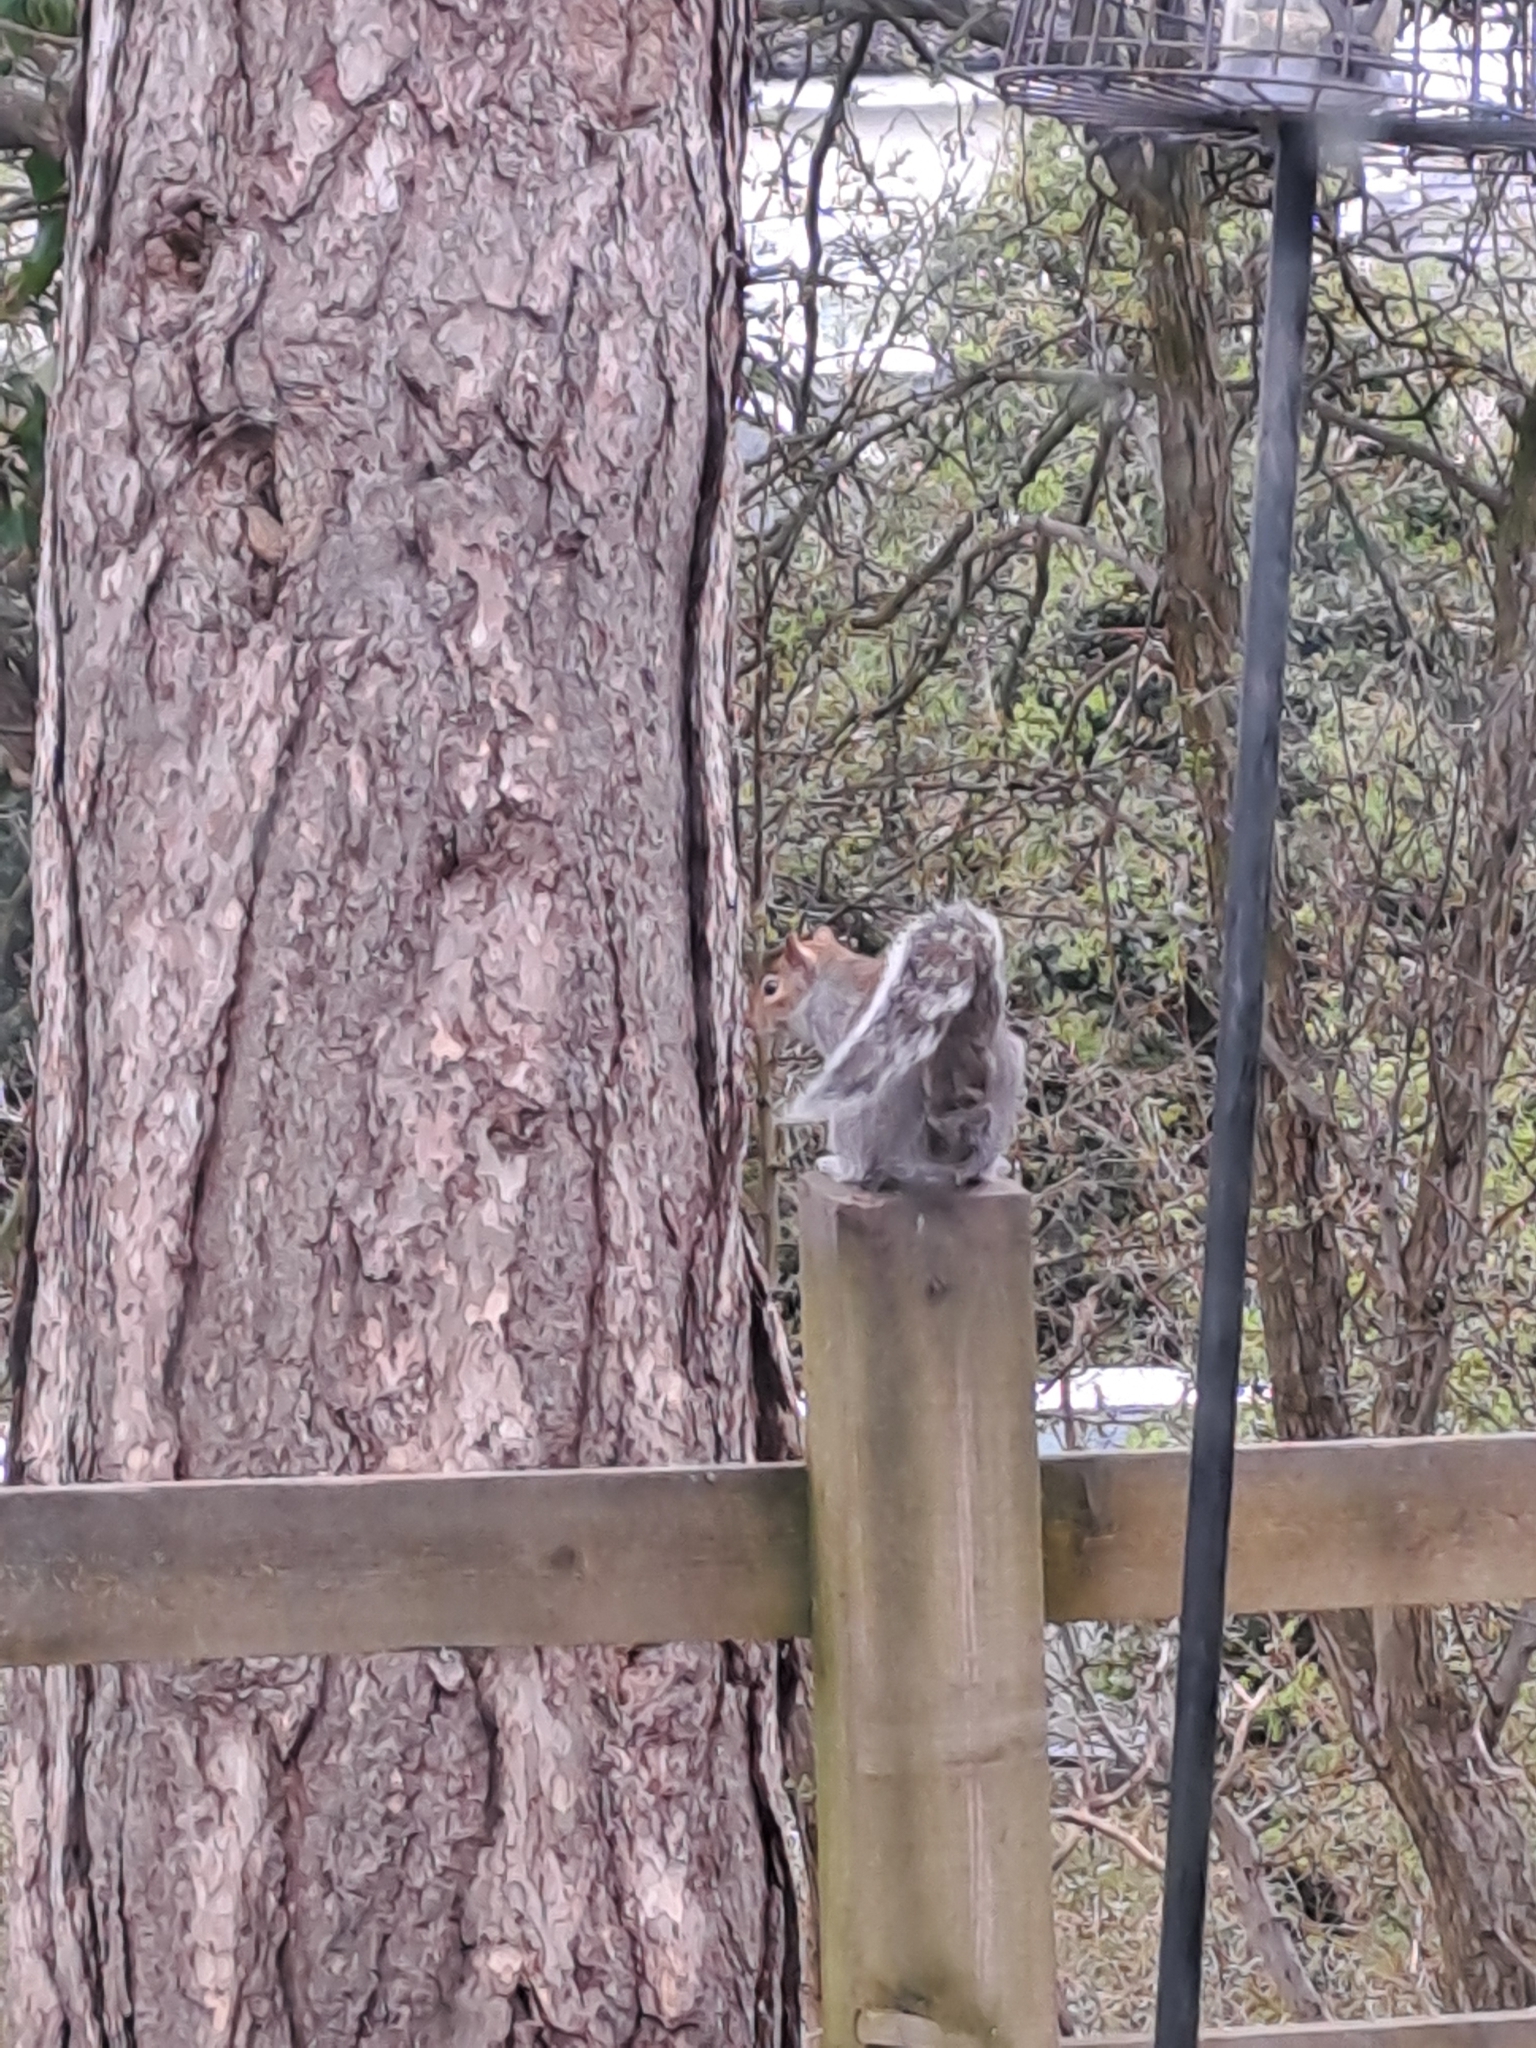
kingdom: Animalia
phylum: Chordata
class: Mammalia
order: Rodentia
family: Sciuridae
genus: Sciurus
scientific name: Sciurus carolinensis
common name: Eastern gray squirrel
